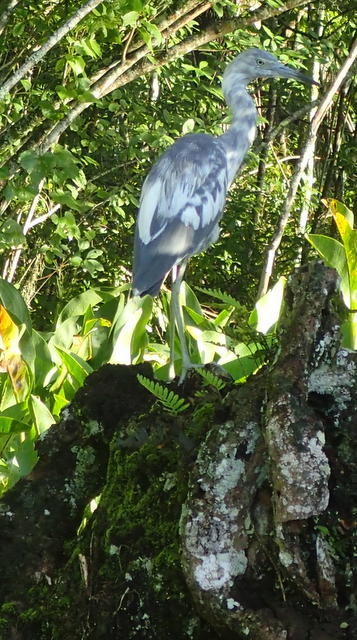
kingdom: Animalia
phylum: Chordata
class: Aves
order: Pelecaniformes
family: Ardeidae
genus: Egretta
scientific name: Egretta caerulea
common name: Little blue heron
